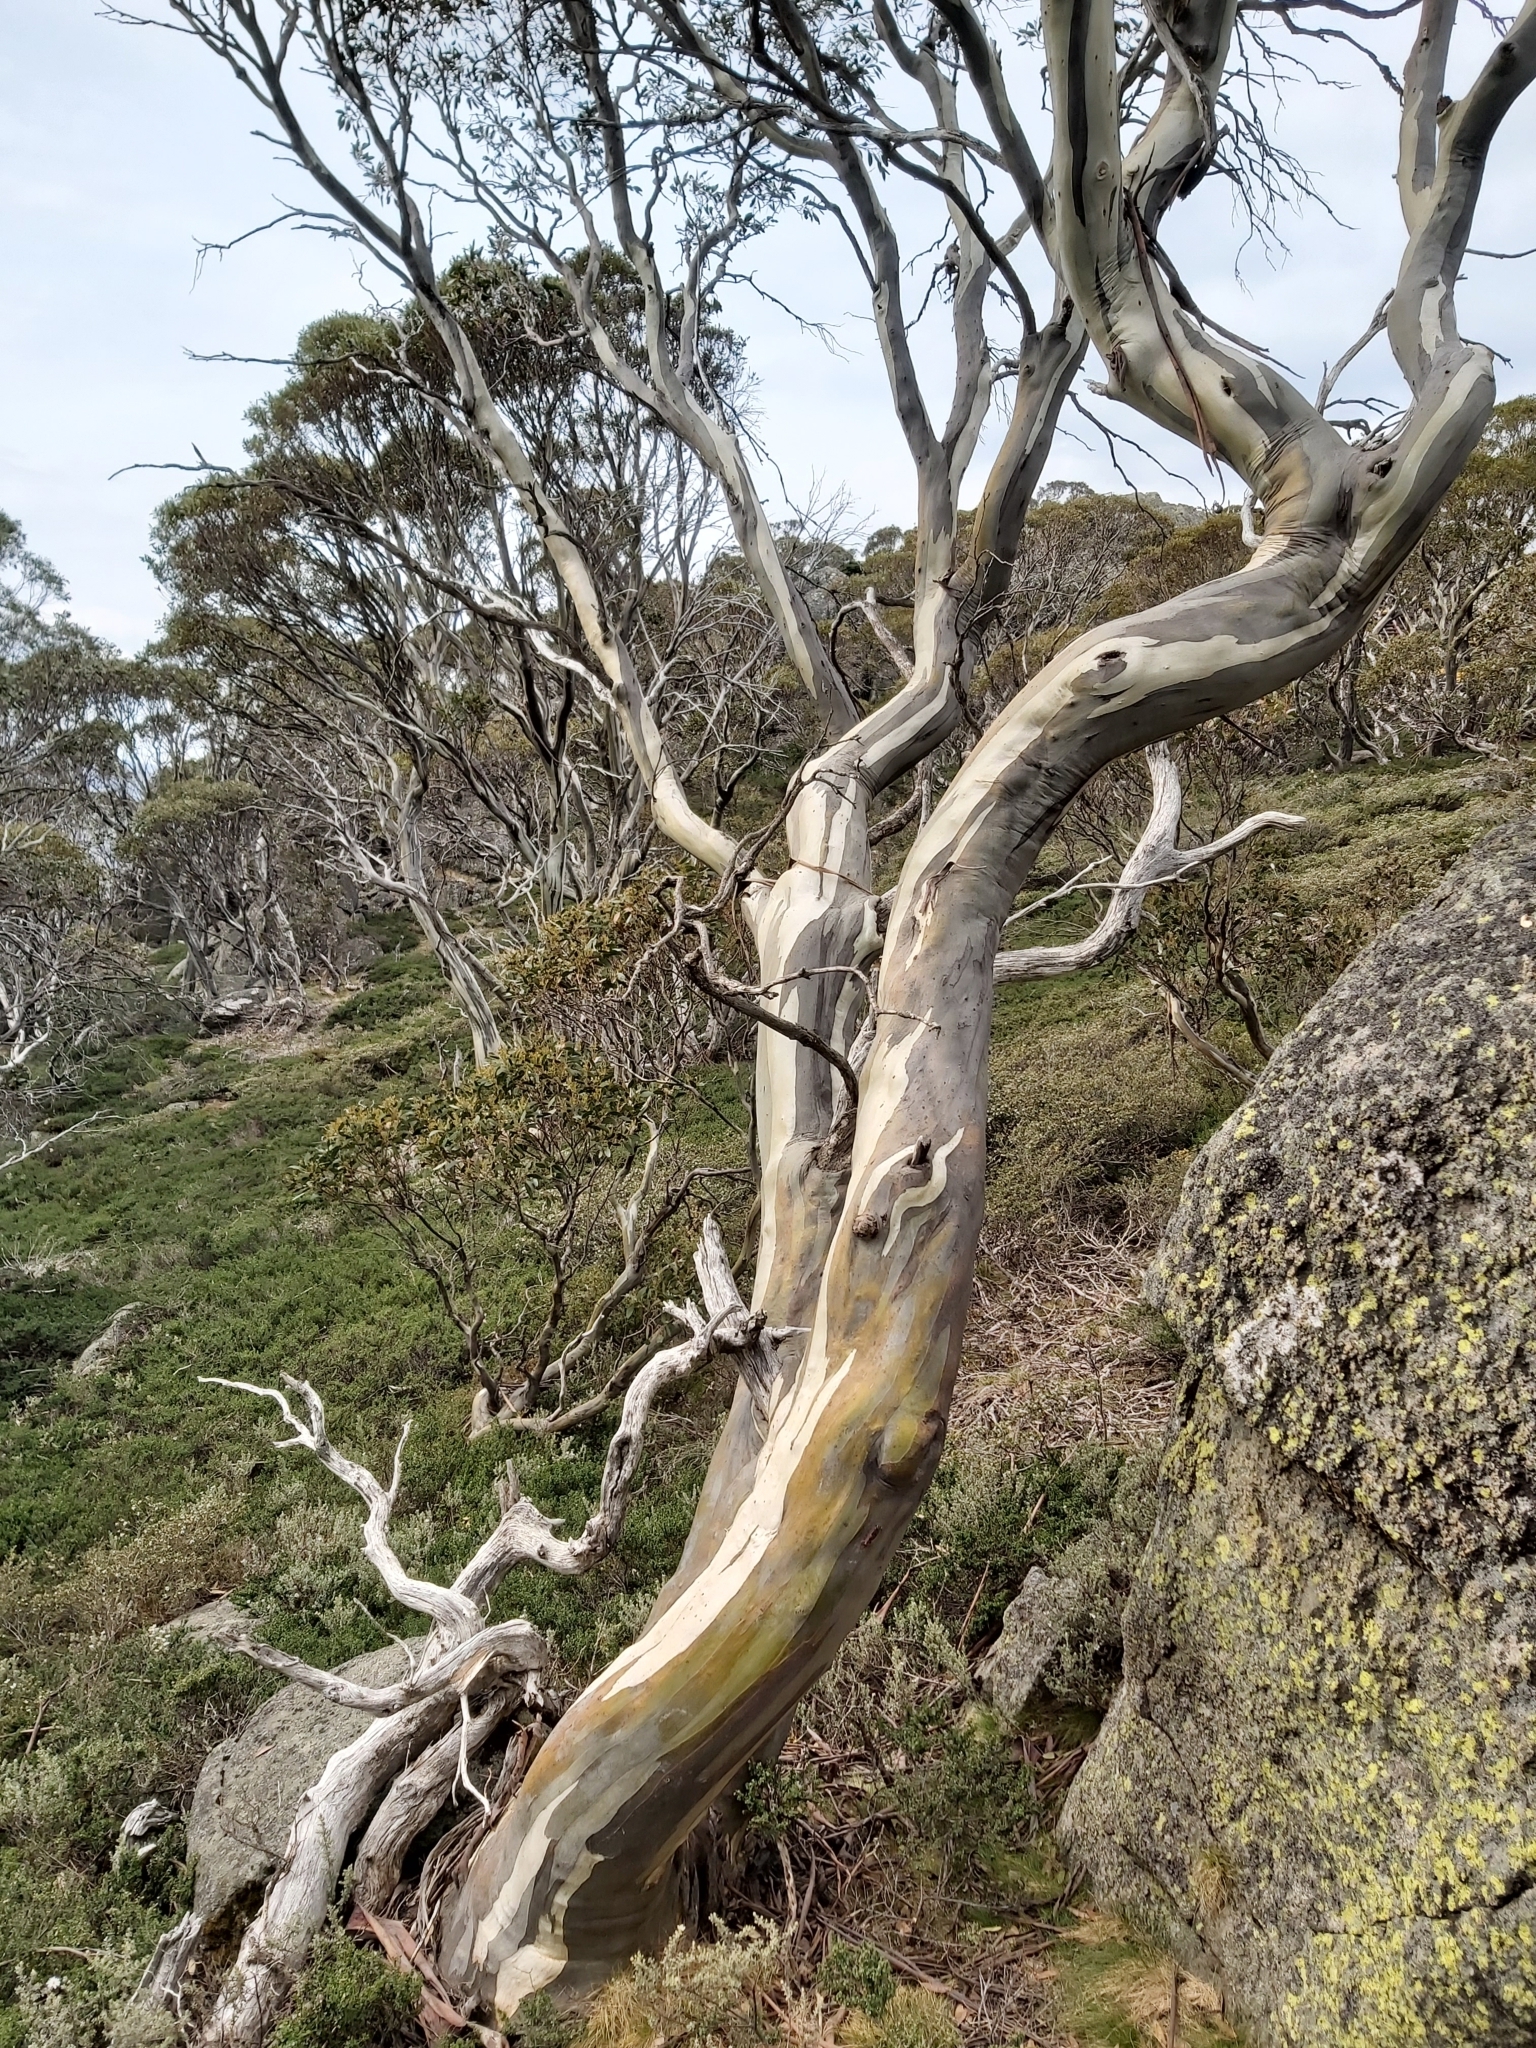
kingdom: Plantae
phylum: Tracheophyta
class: Magnoliopsida
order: Myrtales
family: Myrtaceae
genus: Eucalyptus
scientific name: Eucalyptus pauciflora
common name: Snow gum
